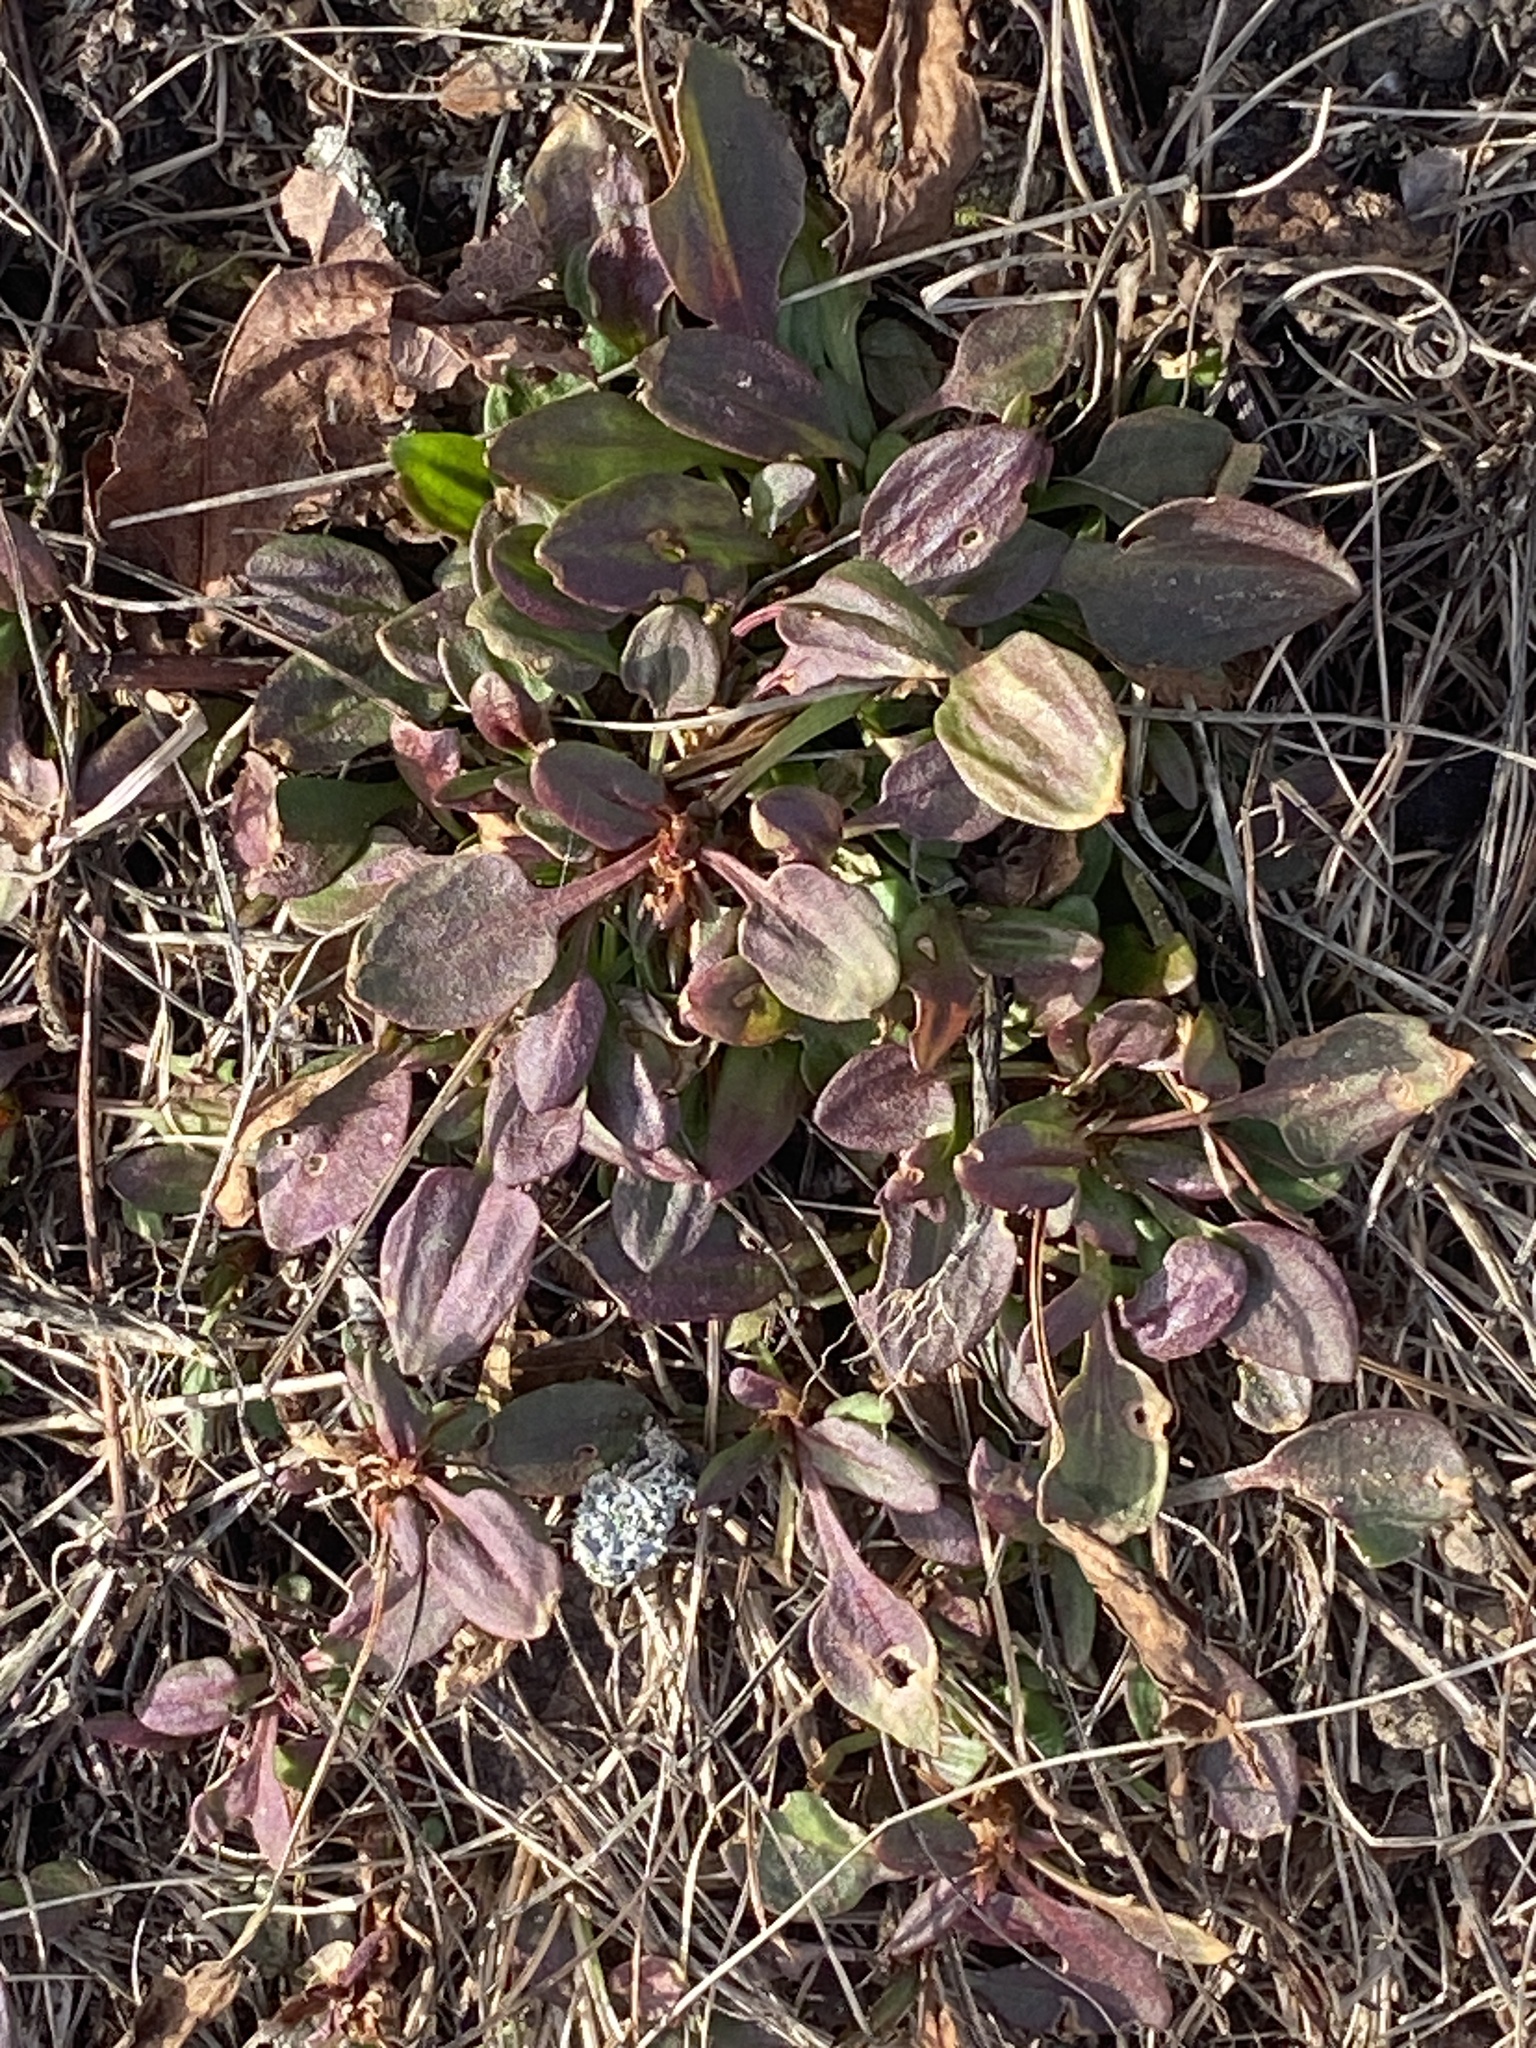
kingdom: Plantae
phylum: Tracheophyta
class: Magnoliopsida
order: Caryophyllales
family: Polygonaceae
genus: Rumex
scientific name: Rumex acetosella
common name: Common sheep sorrel
